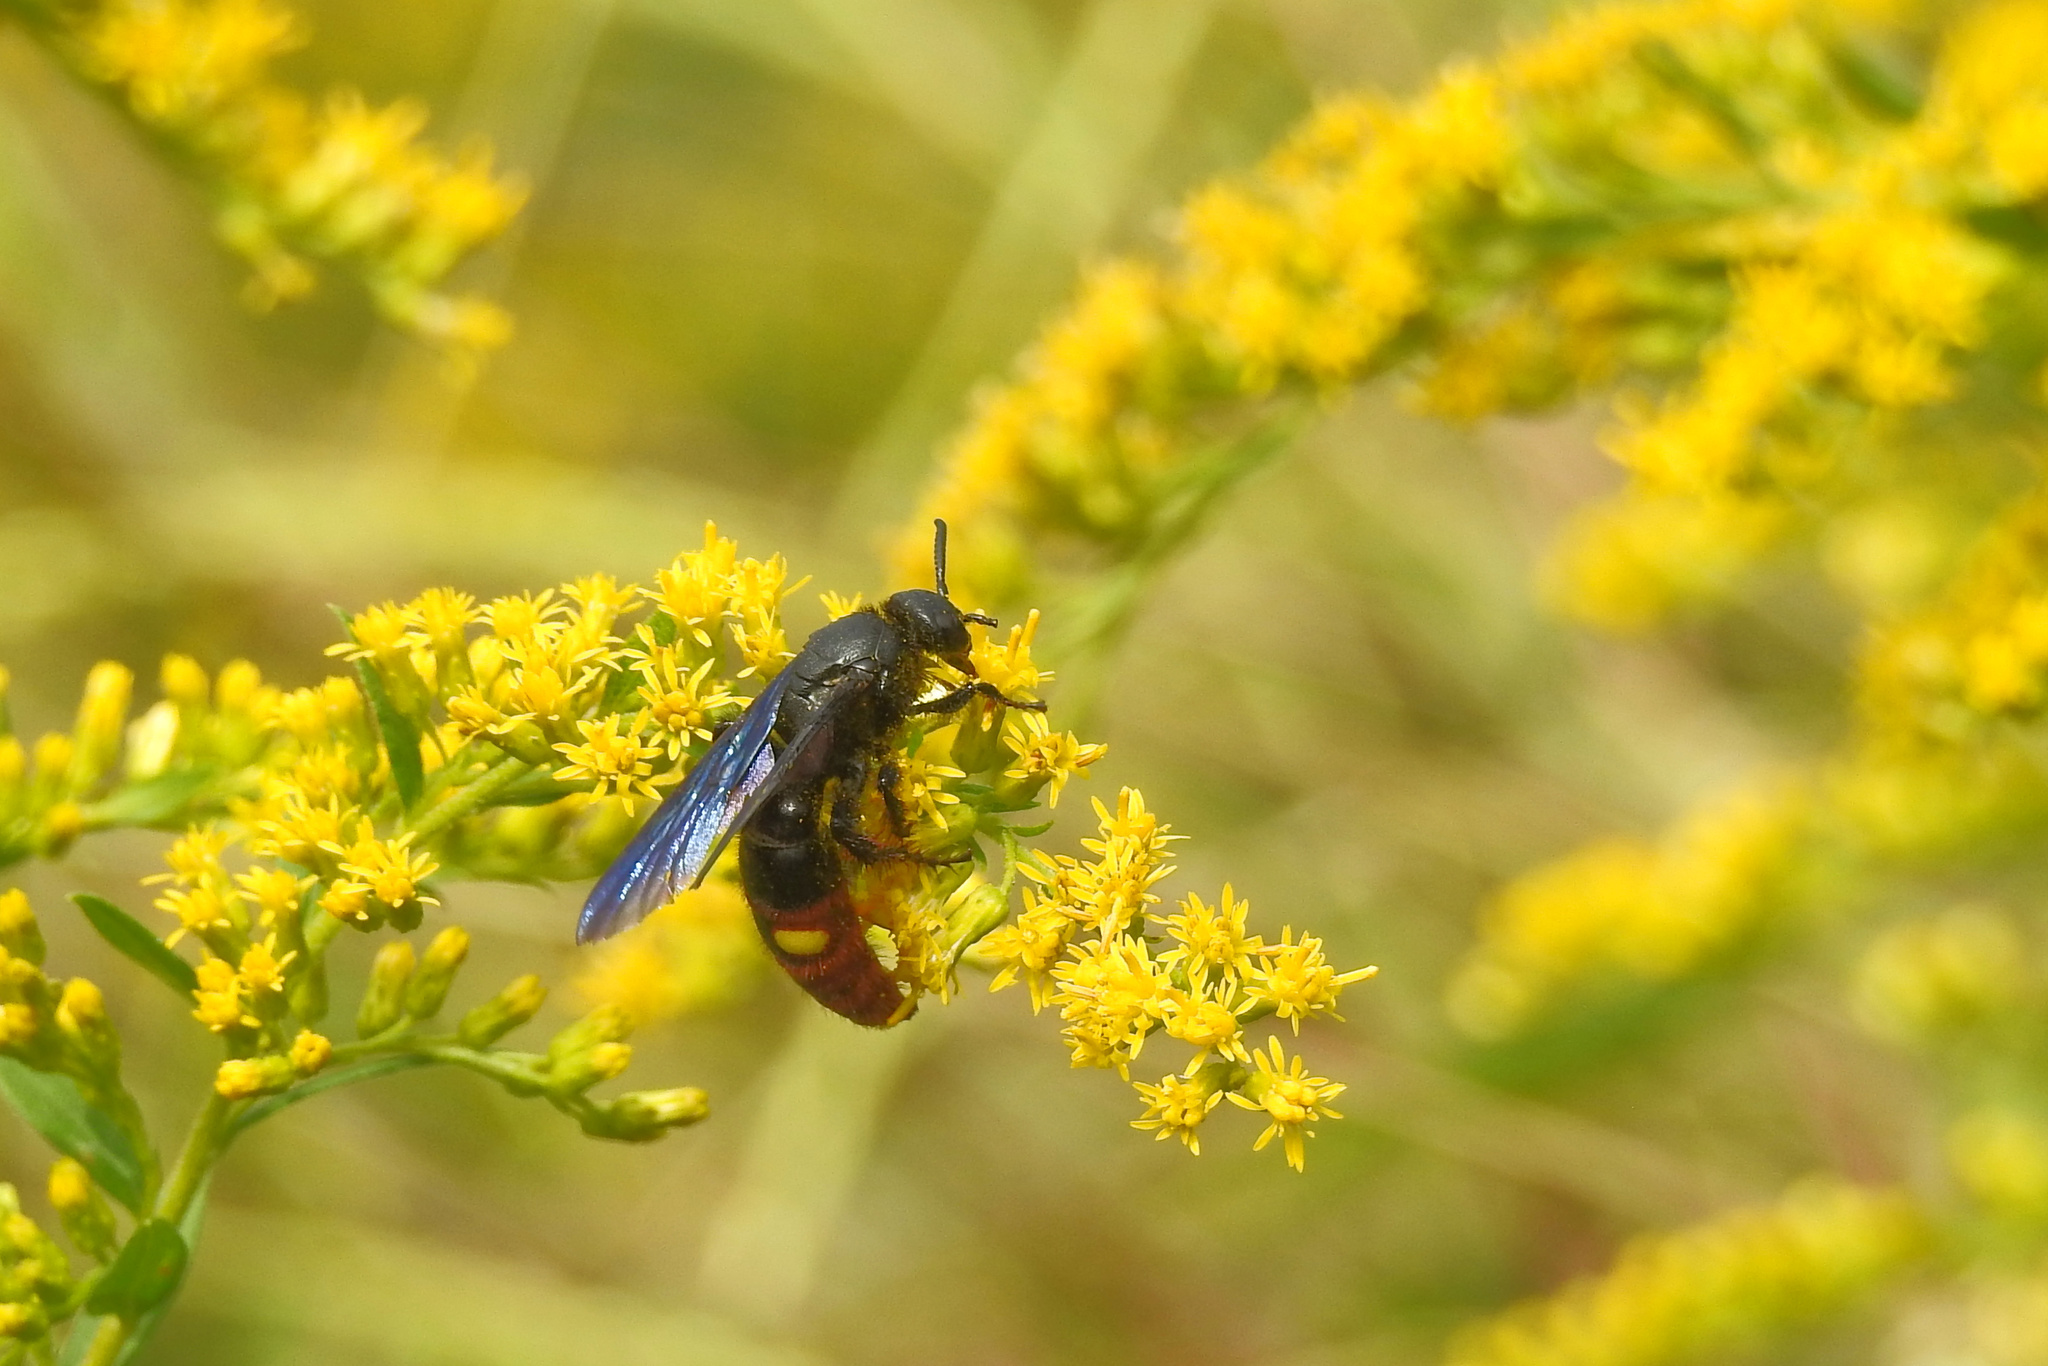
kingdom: Animalia
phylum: Arthropoda
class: Insecta
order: Hymenoptera
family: Scoliidae
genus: Scolia
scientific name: Scolia dubia
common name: Blue-winged scoliid wasp
